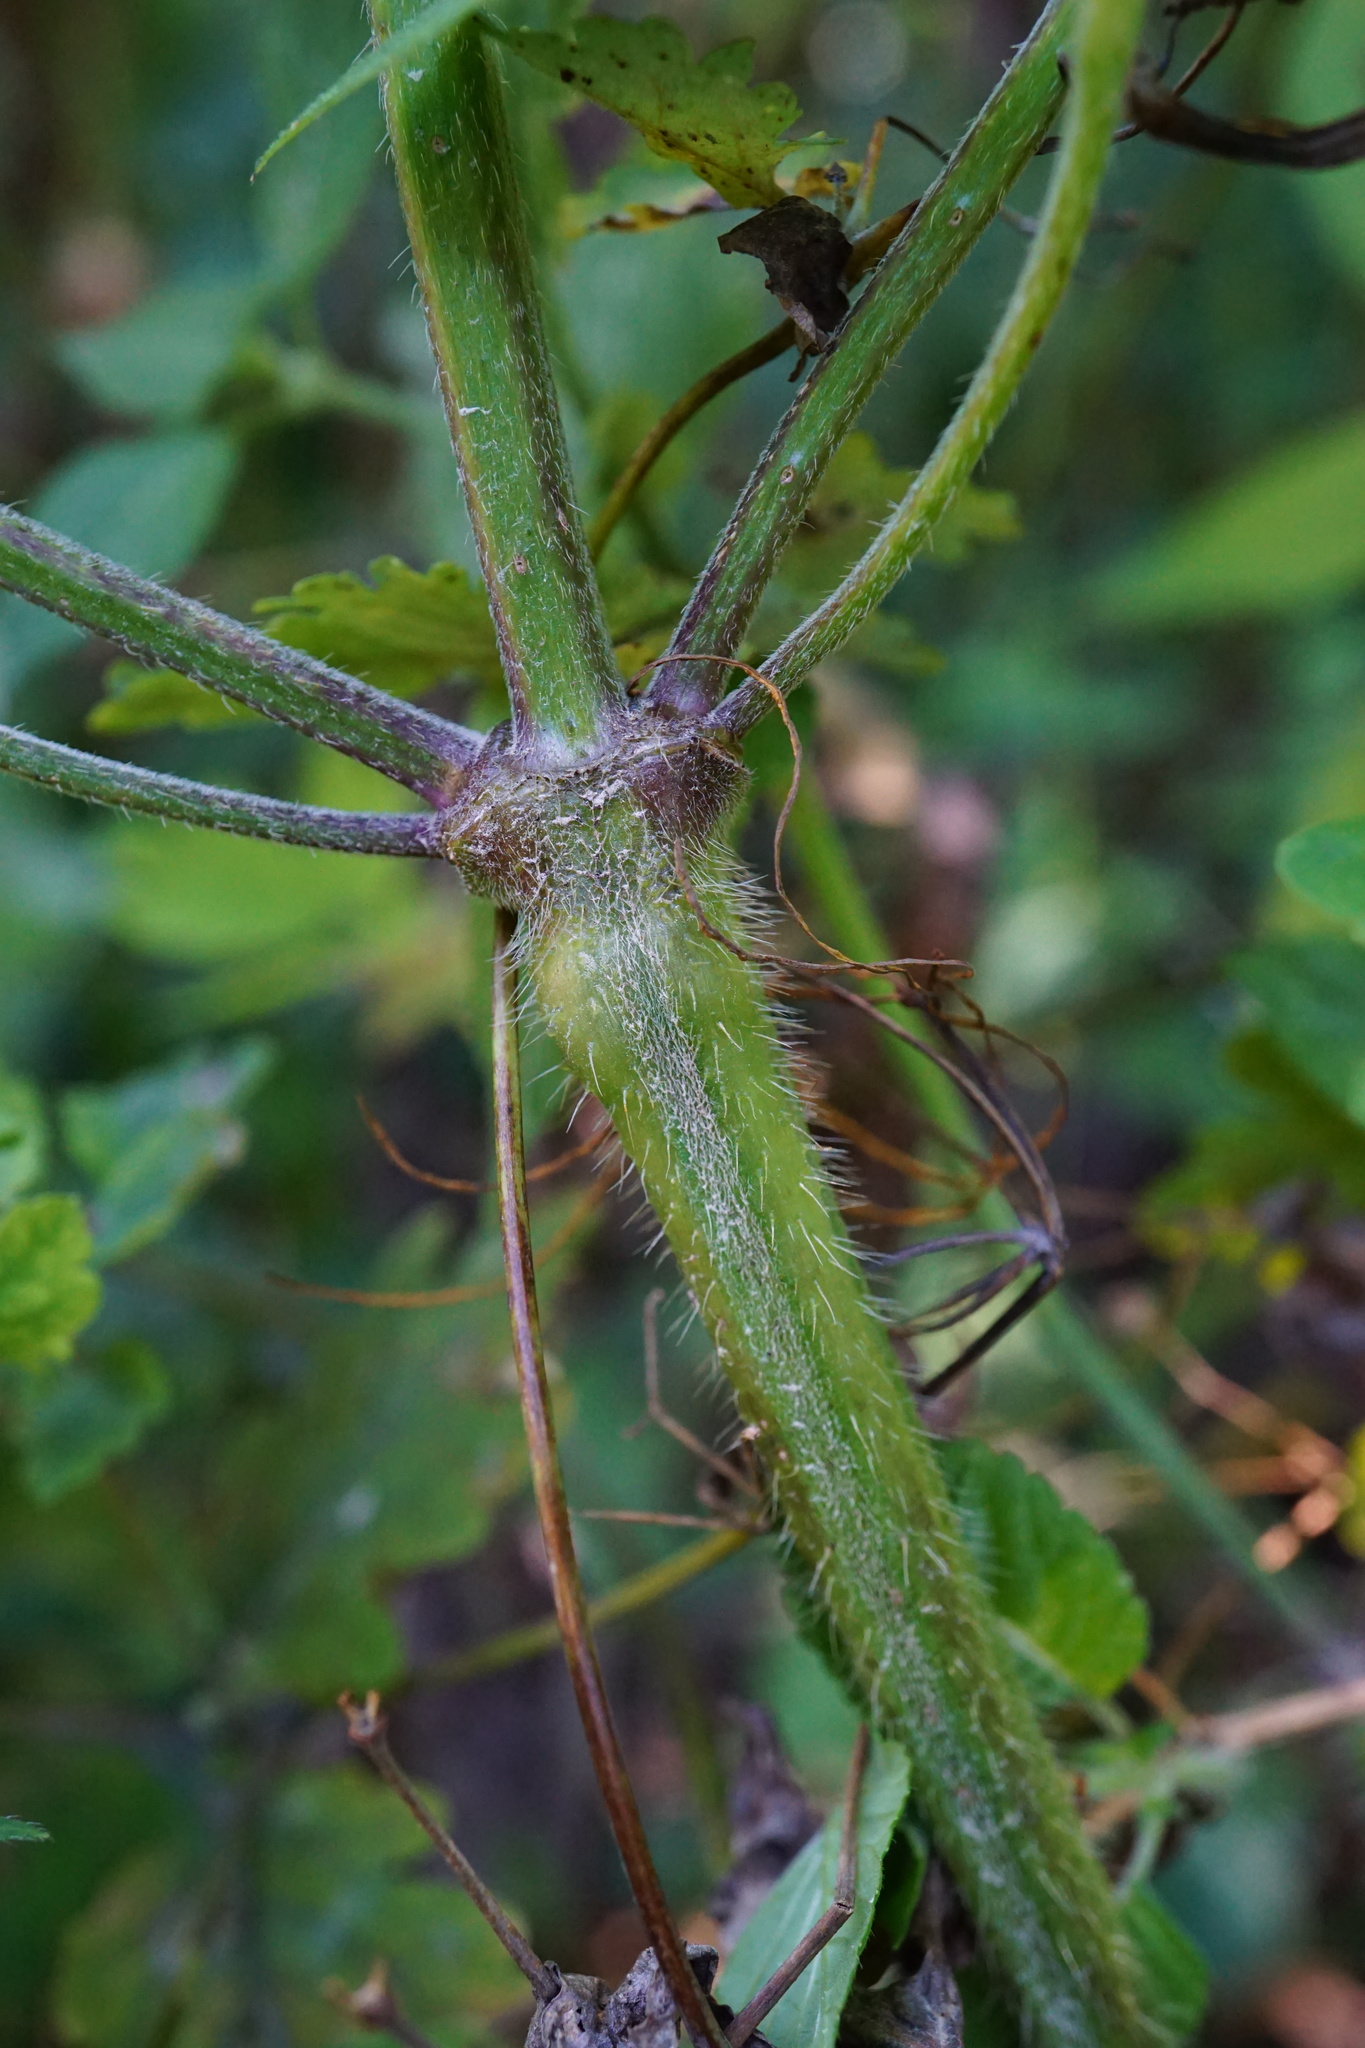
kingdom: Plantae
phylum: Tracheophyta
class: Magnoliopsida
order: Lamiales
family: Lamiaceae
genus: Galeopsis
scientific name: Galeopsis pubescens
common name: Downy hemp-nettle
